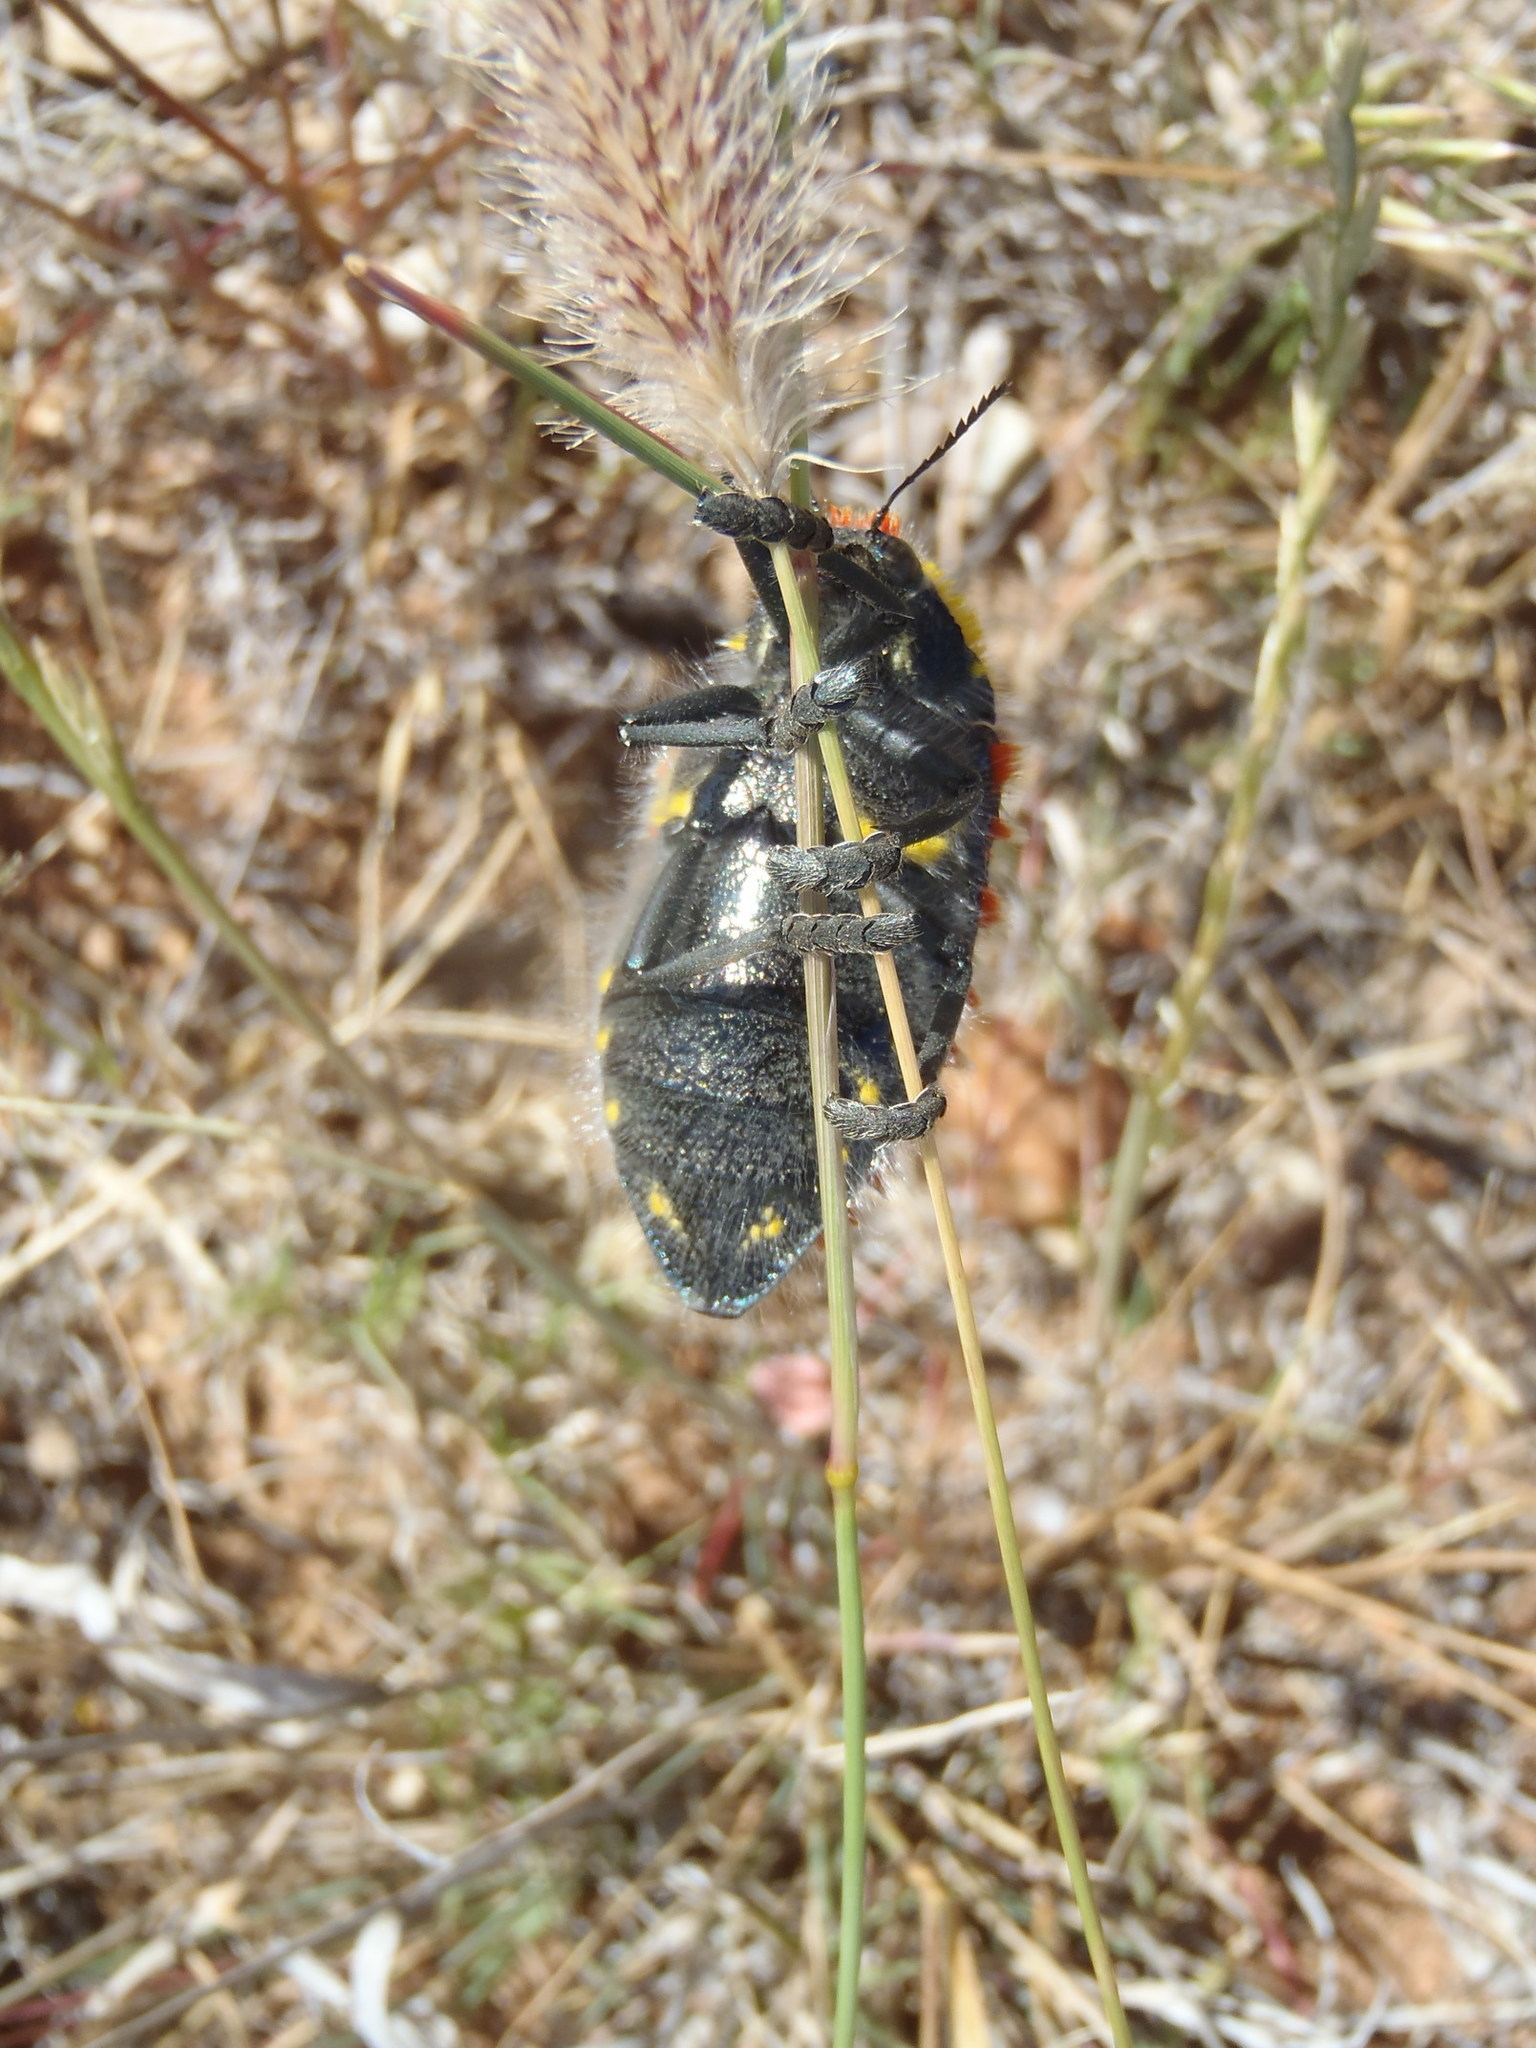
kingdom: Animalia
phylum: Arthropoda
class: Insecta
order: Coleoptera
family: Buprestidae
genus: Julodis
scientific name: Julodis hirsuta
